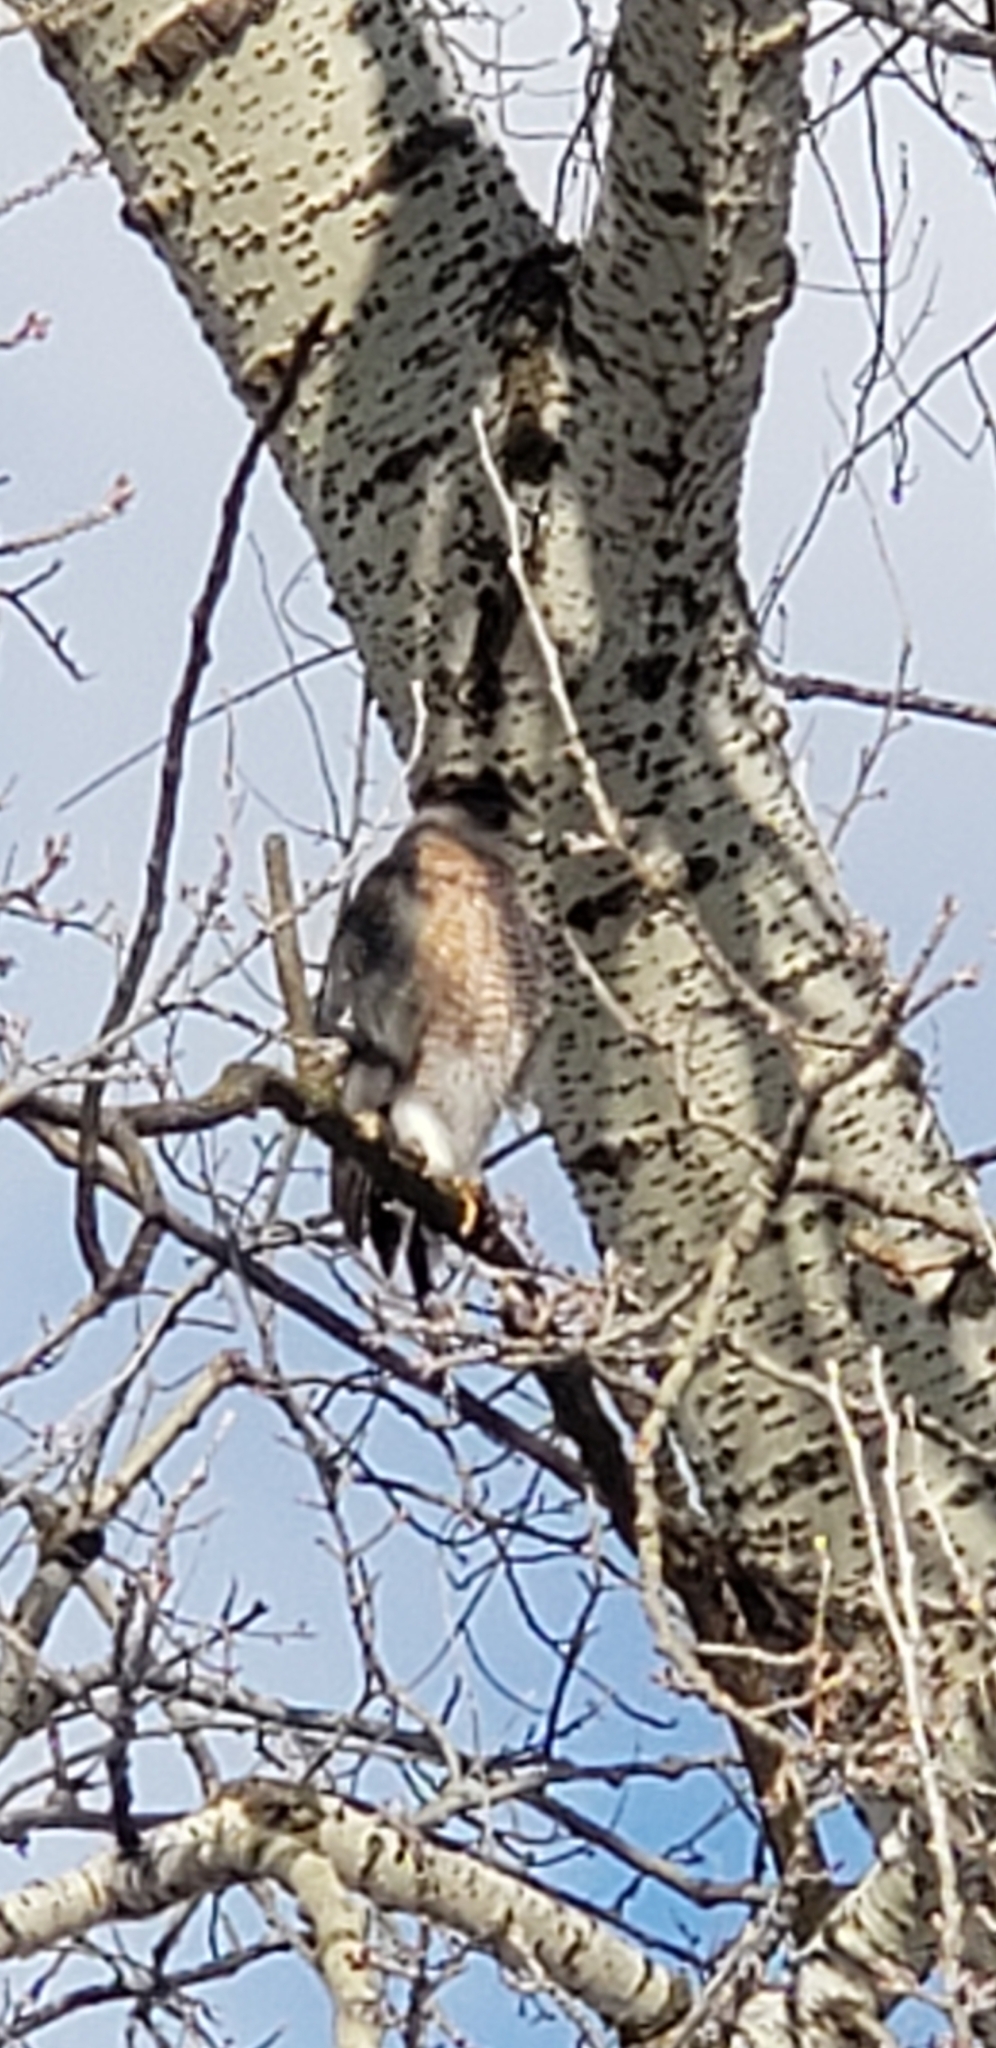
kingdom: Animalia
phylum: Chordata
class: Aves
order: Accipitriformes
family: Accipitridae
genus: Accipiter
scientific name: Accipiter cooperii
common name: Cooper's hawk
